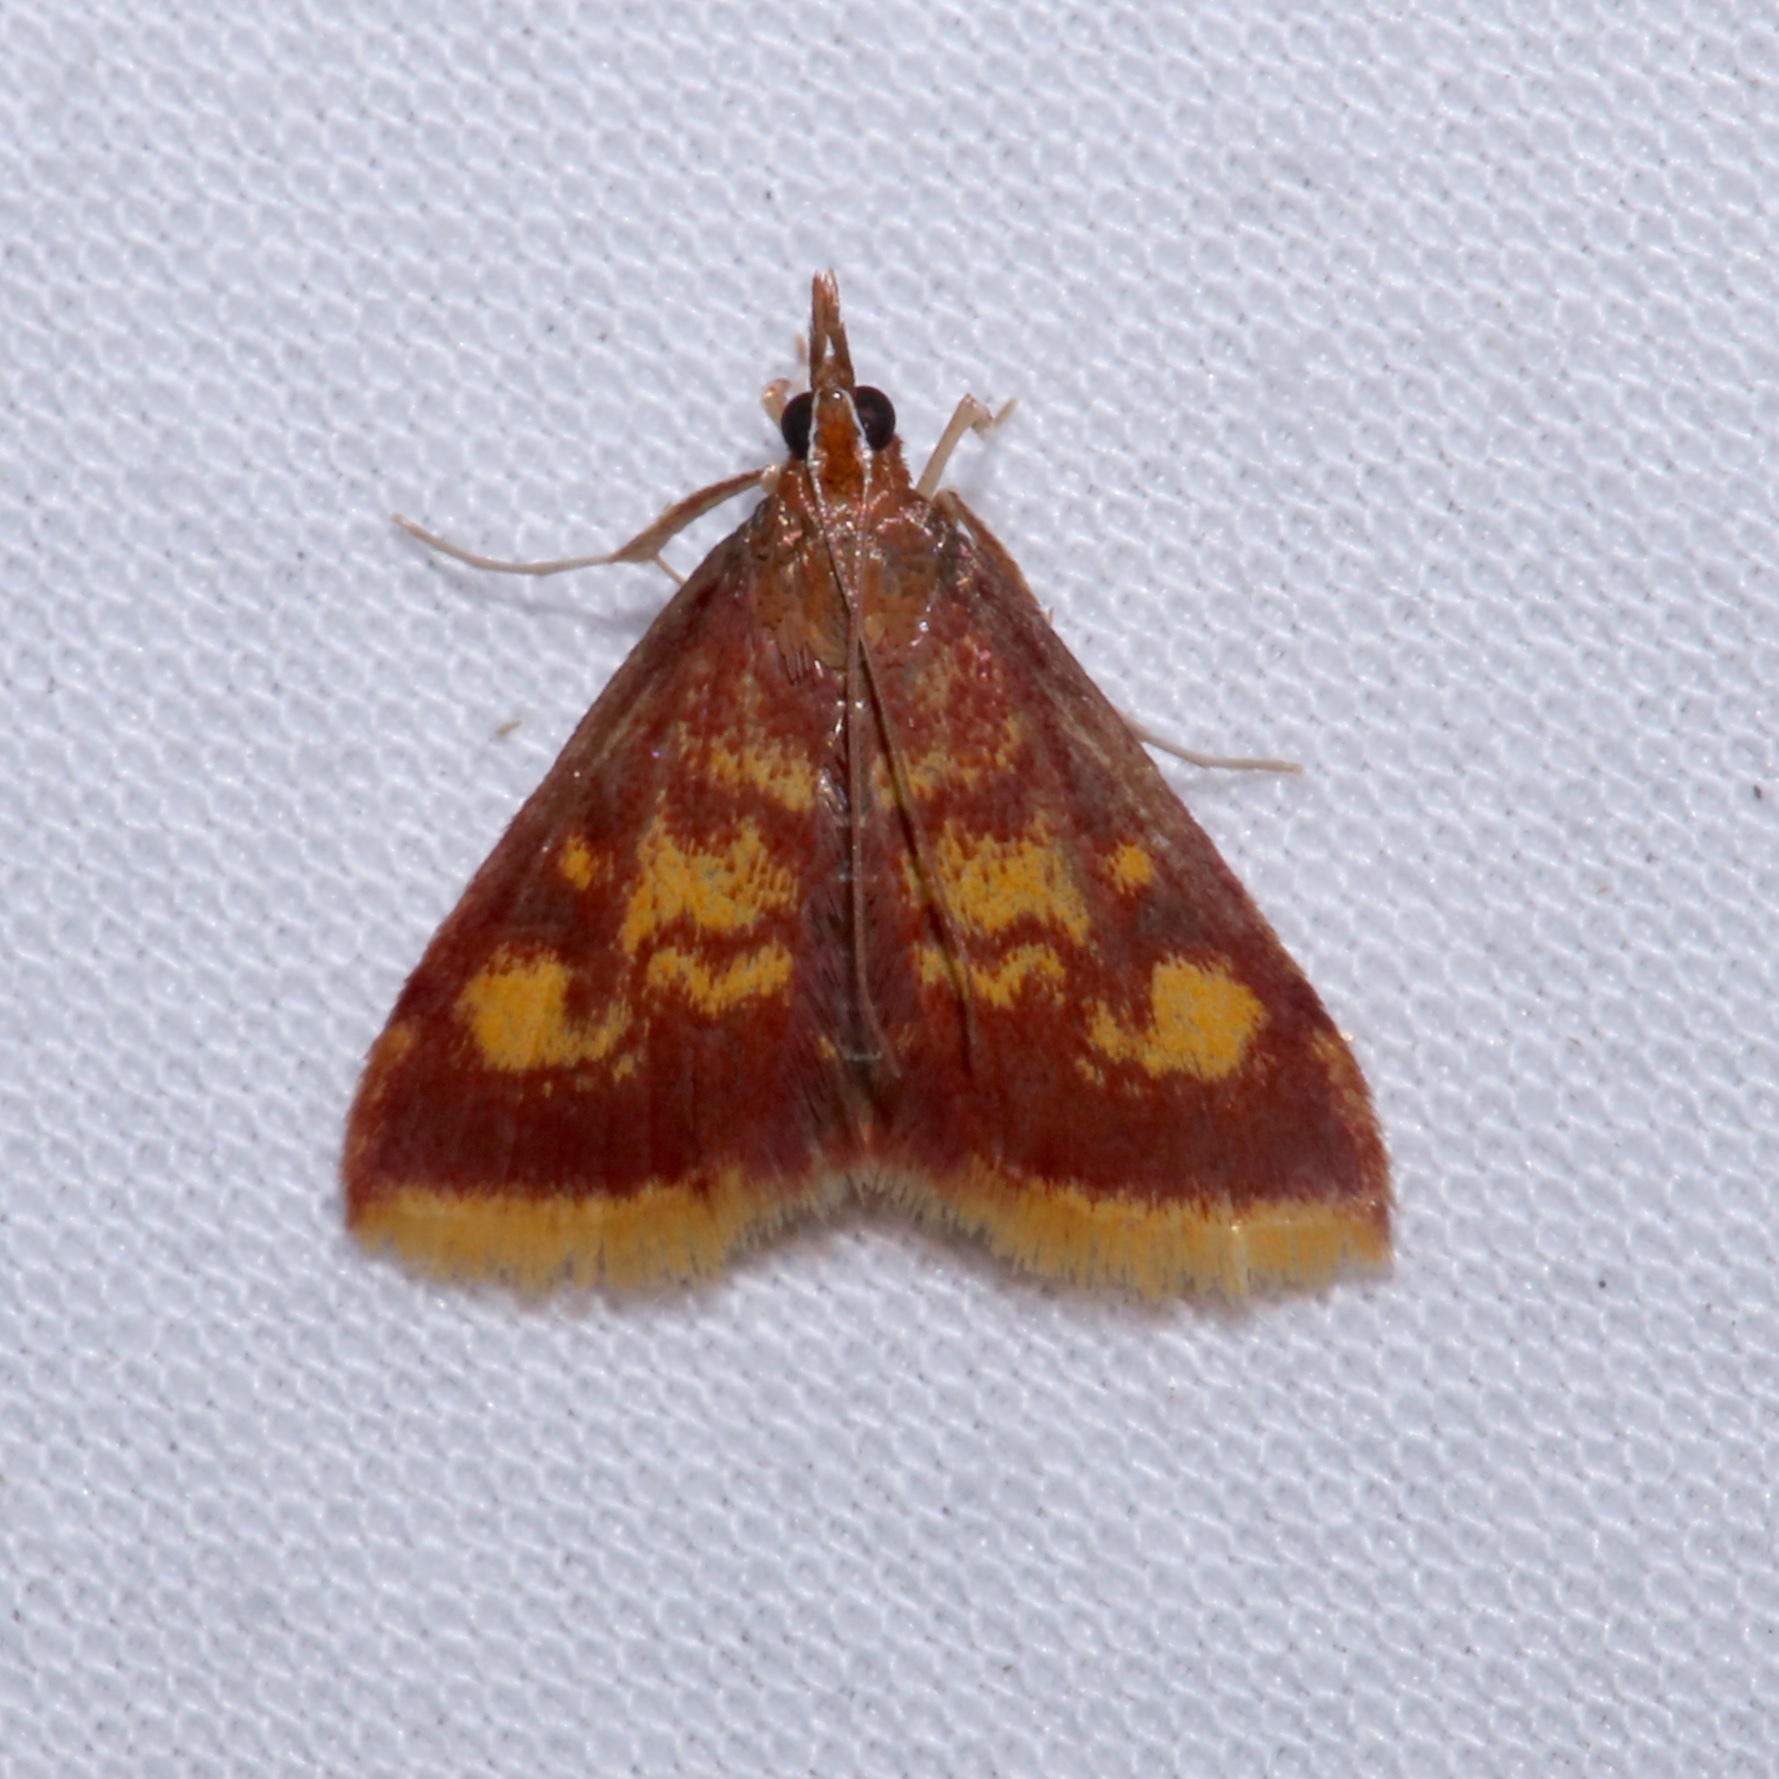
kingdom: Animalia
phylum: Arthropoda
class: Insecta
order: Lepidoptera
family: Crambidae
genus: Pyrausta
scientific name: Pyrausta acrionalis
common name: Mint-loving pyrausta moth
